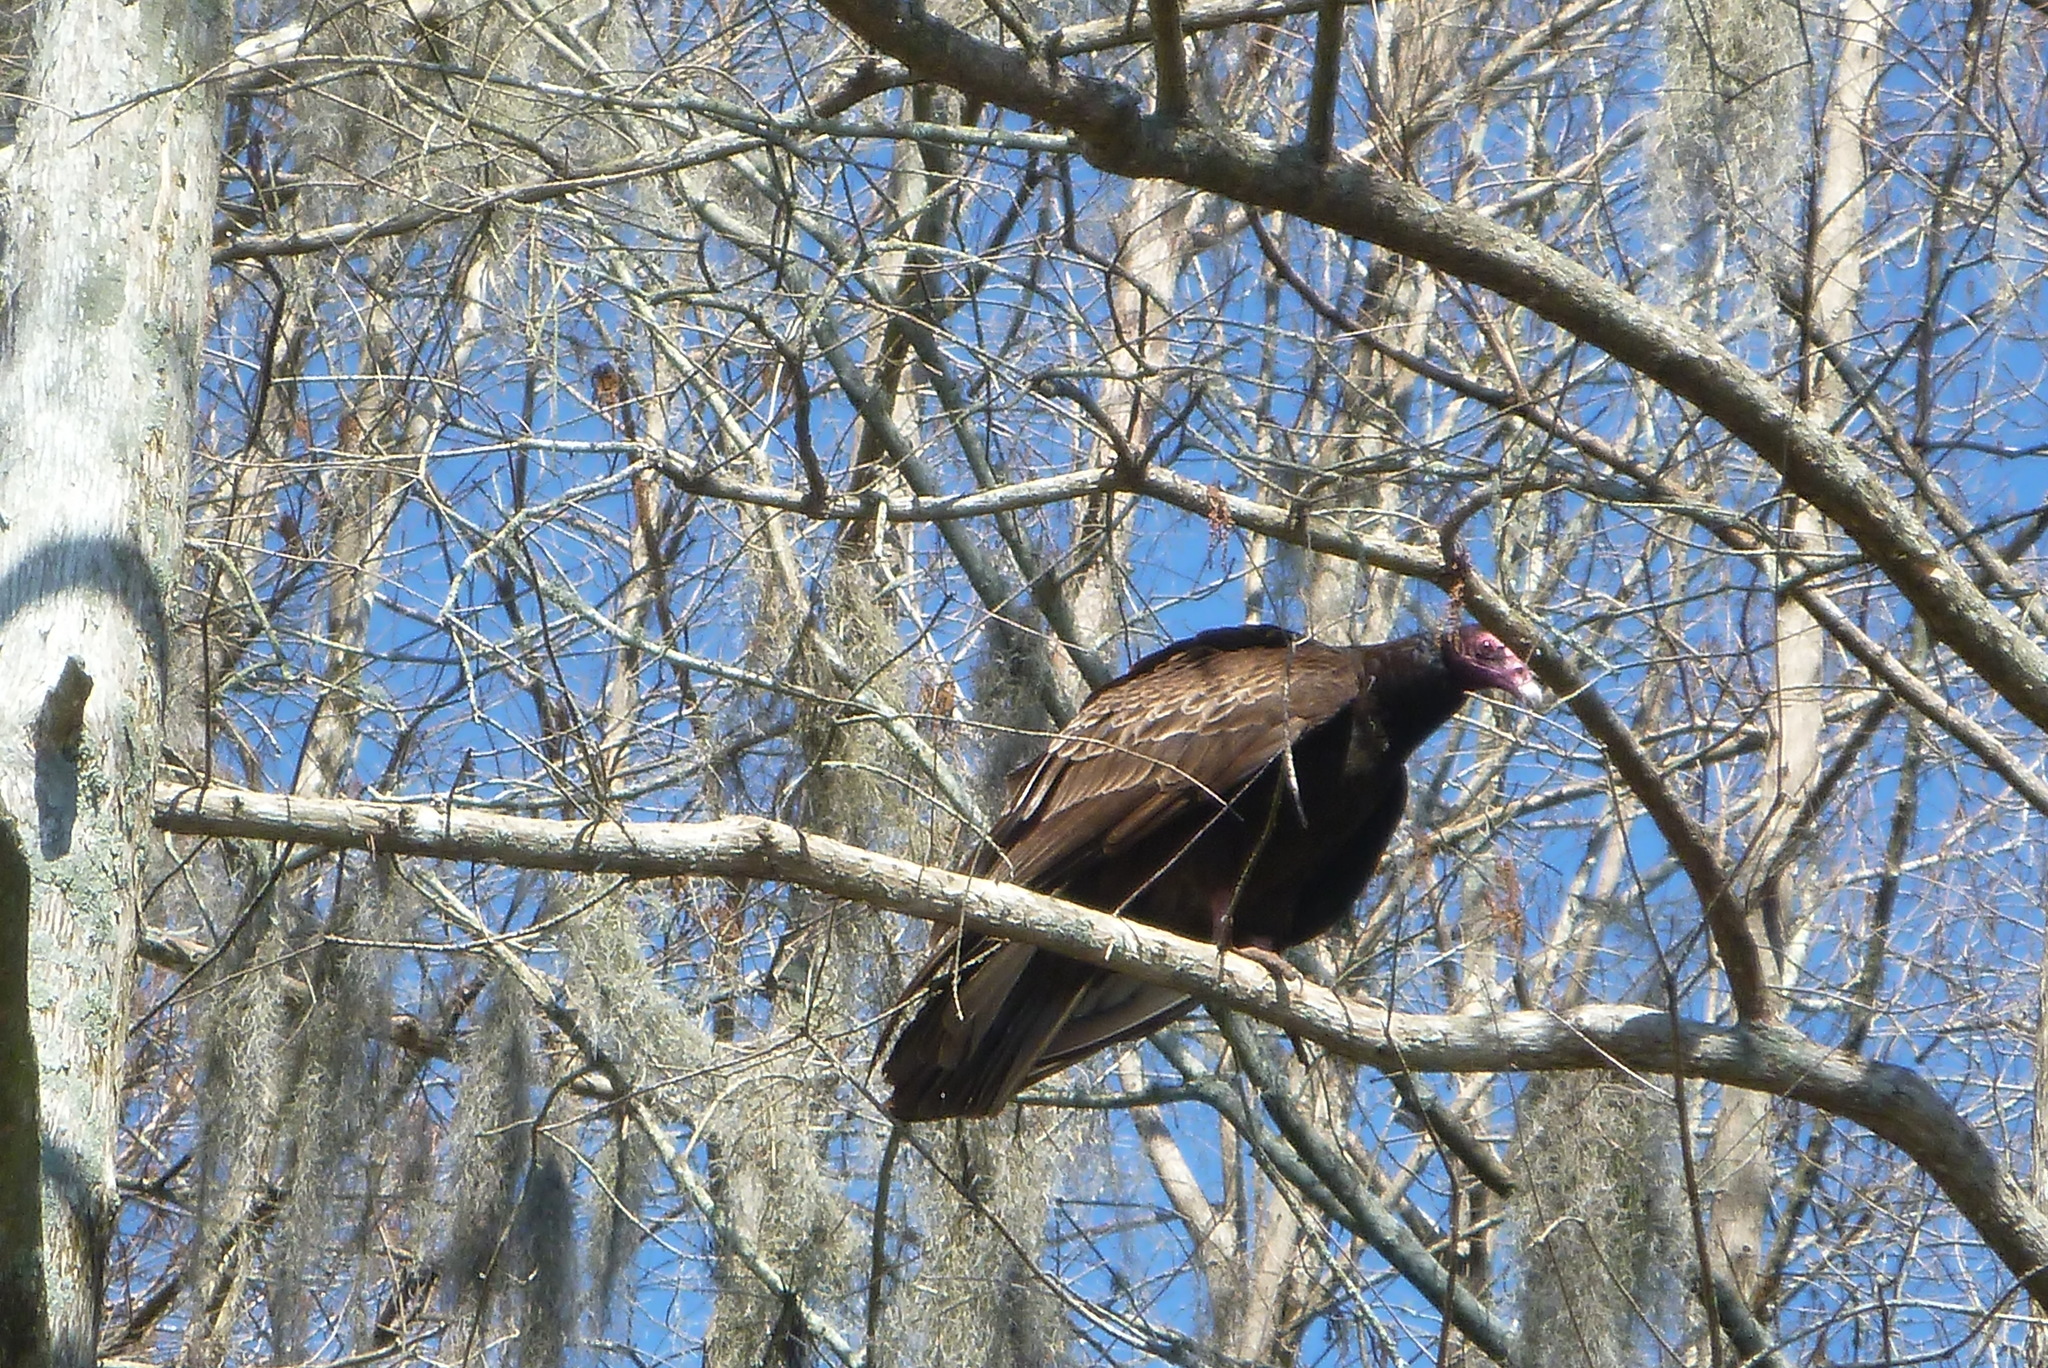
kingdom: Animalia
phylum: Chordata
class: Aves
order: Accipitriformes
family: Cathartidae
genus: Cathartes
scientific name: Cathartes aura
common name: Turkey vulture
